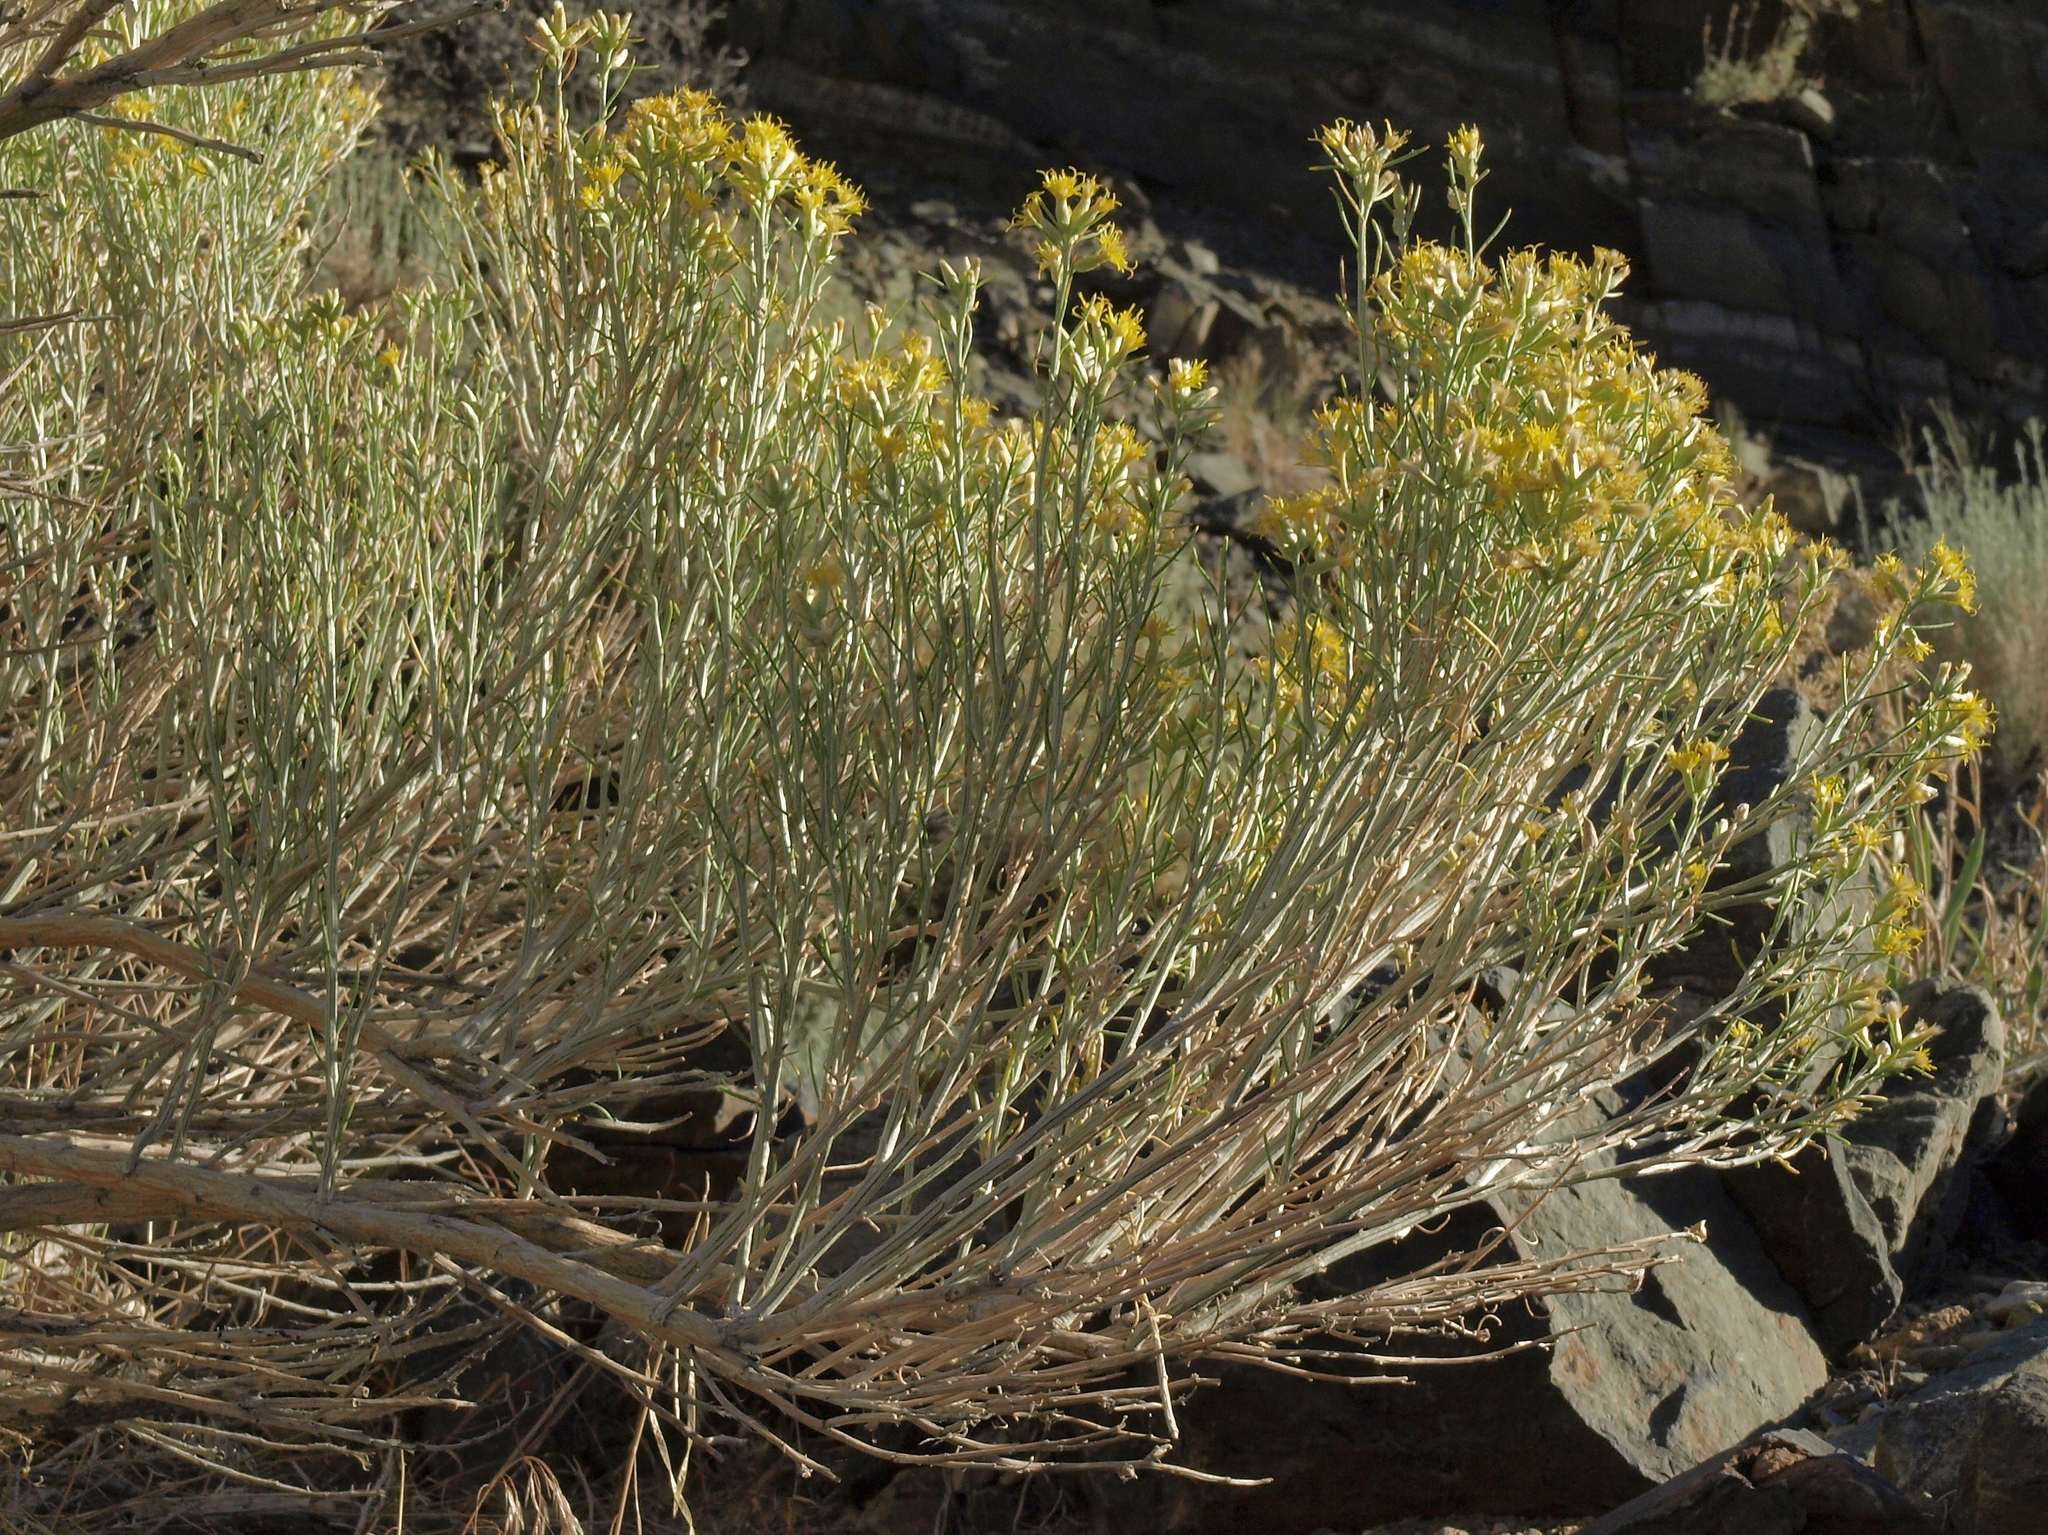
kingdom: Plantae
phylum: Tracheophyta
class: Magnoliopsida
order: Asterales
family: Asteraceae
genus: Lepidospartum
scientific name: Lepidospartum latisquamum
